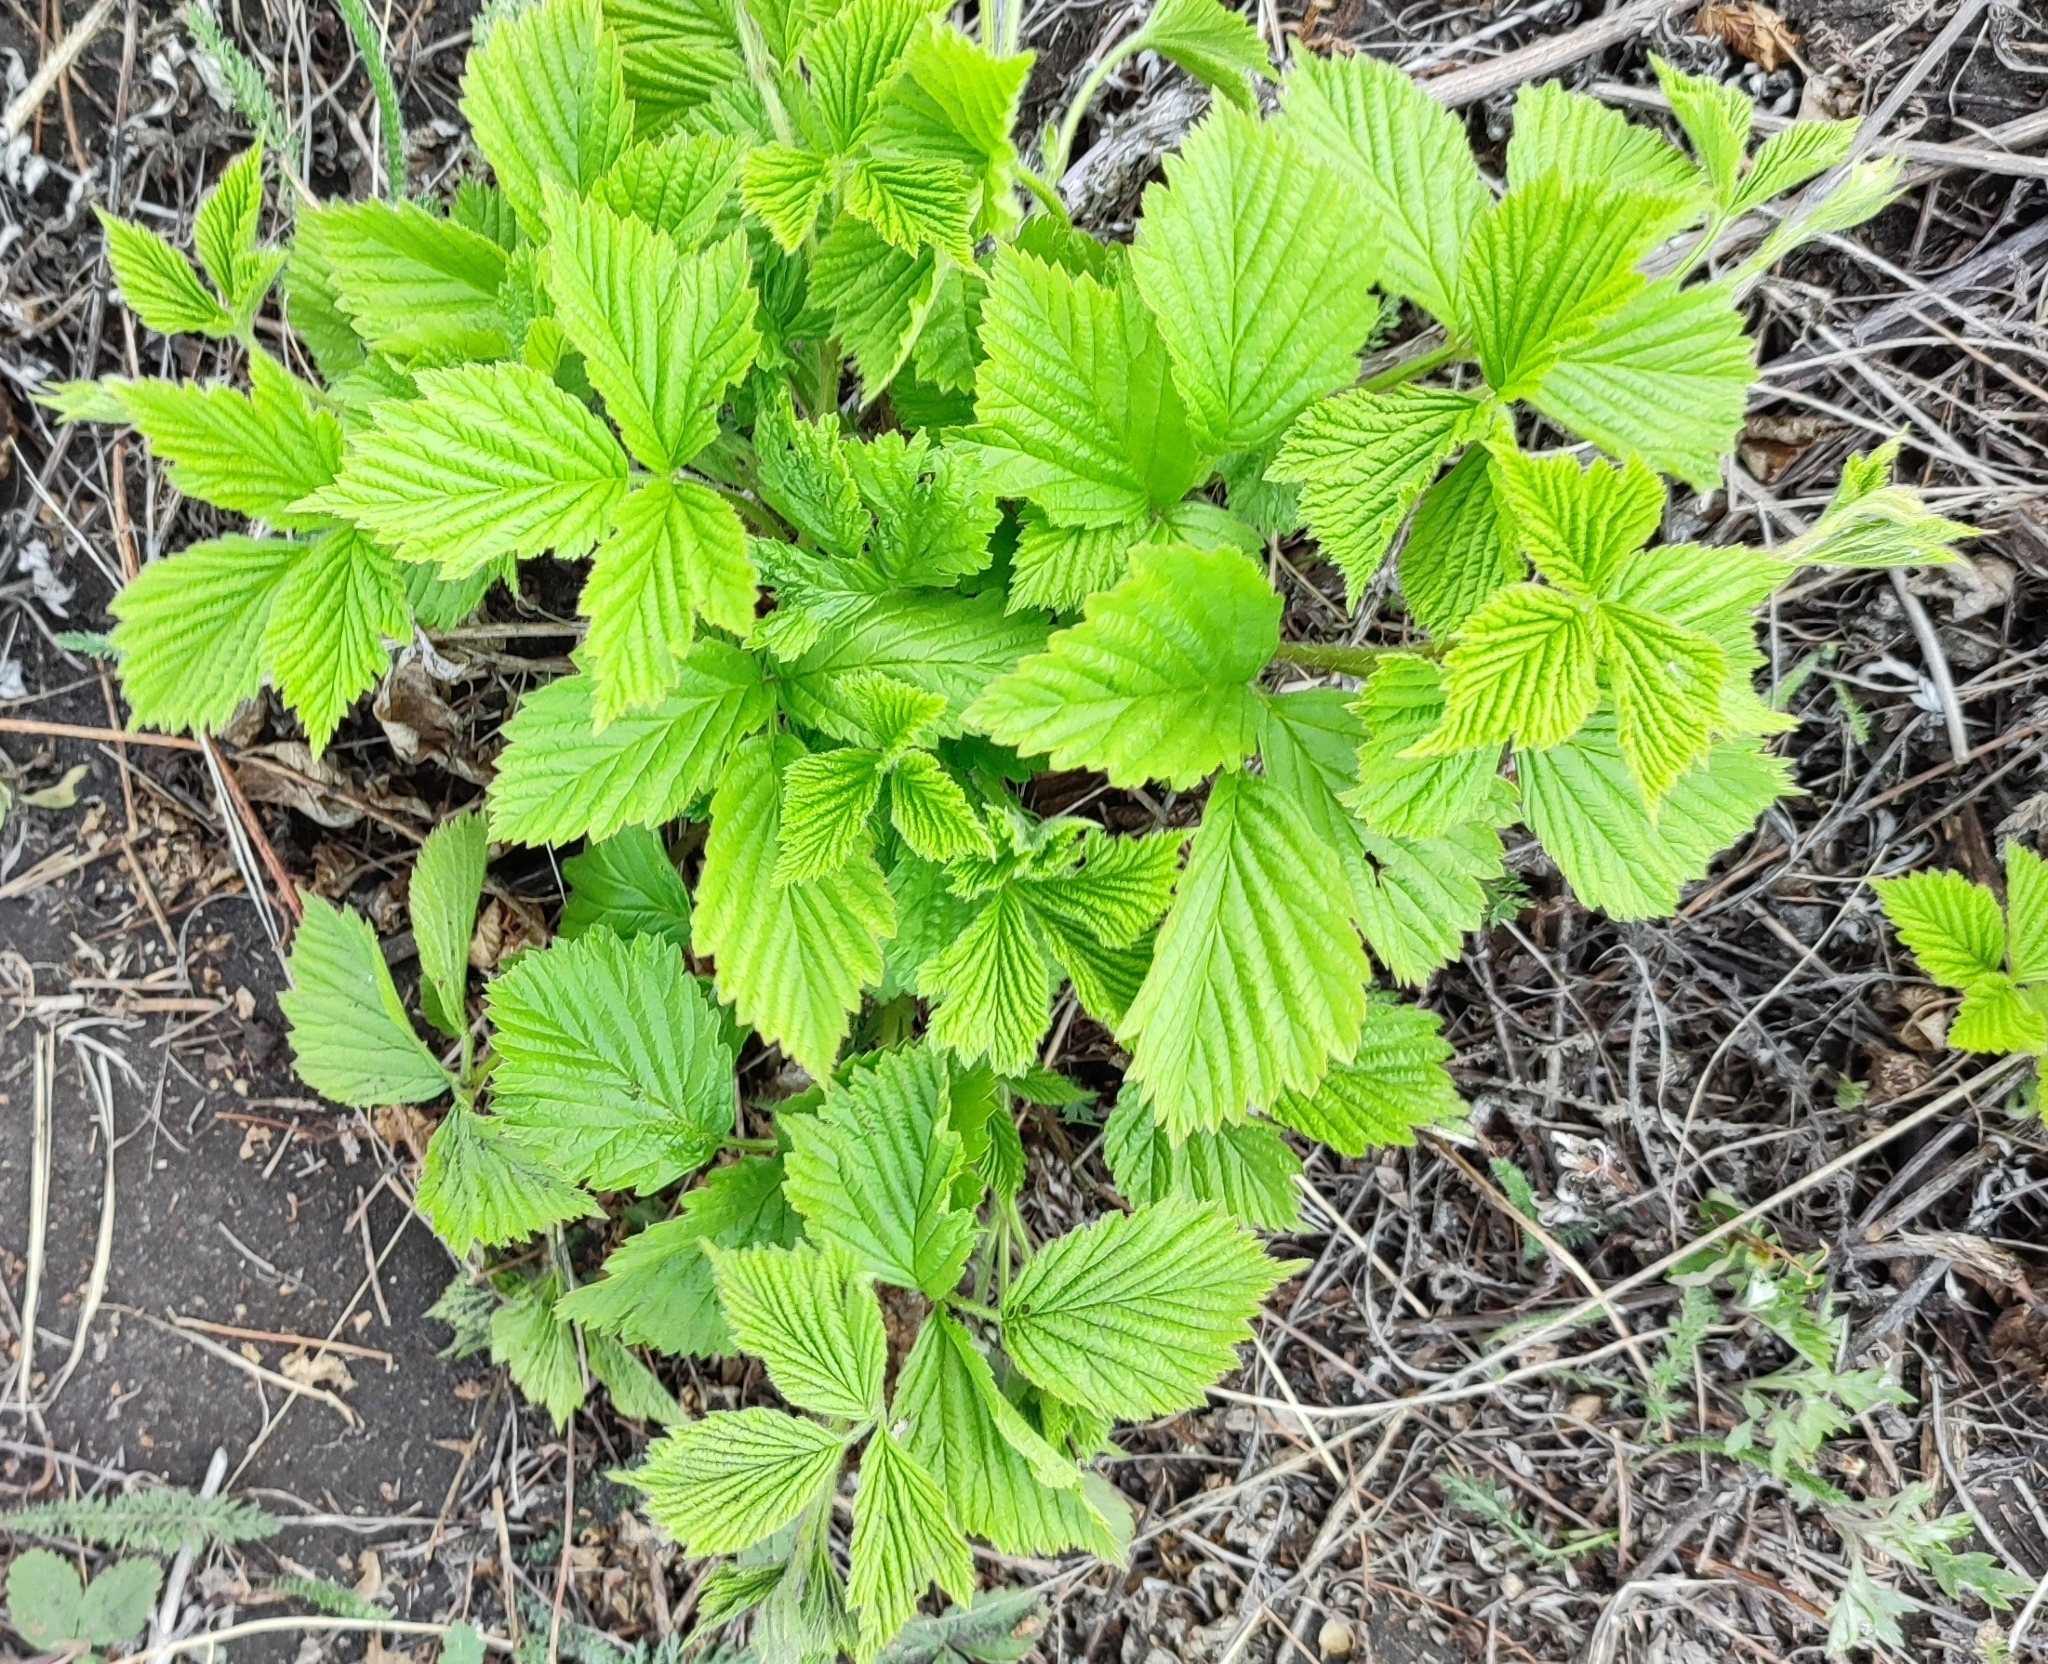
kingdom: Plantae
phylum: Tracheophyta
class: Magnoliopsida
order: Rosales
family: Rosaceae
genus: Rubus
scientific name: Rubus saxatilis
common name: Stone bramble
